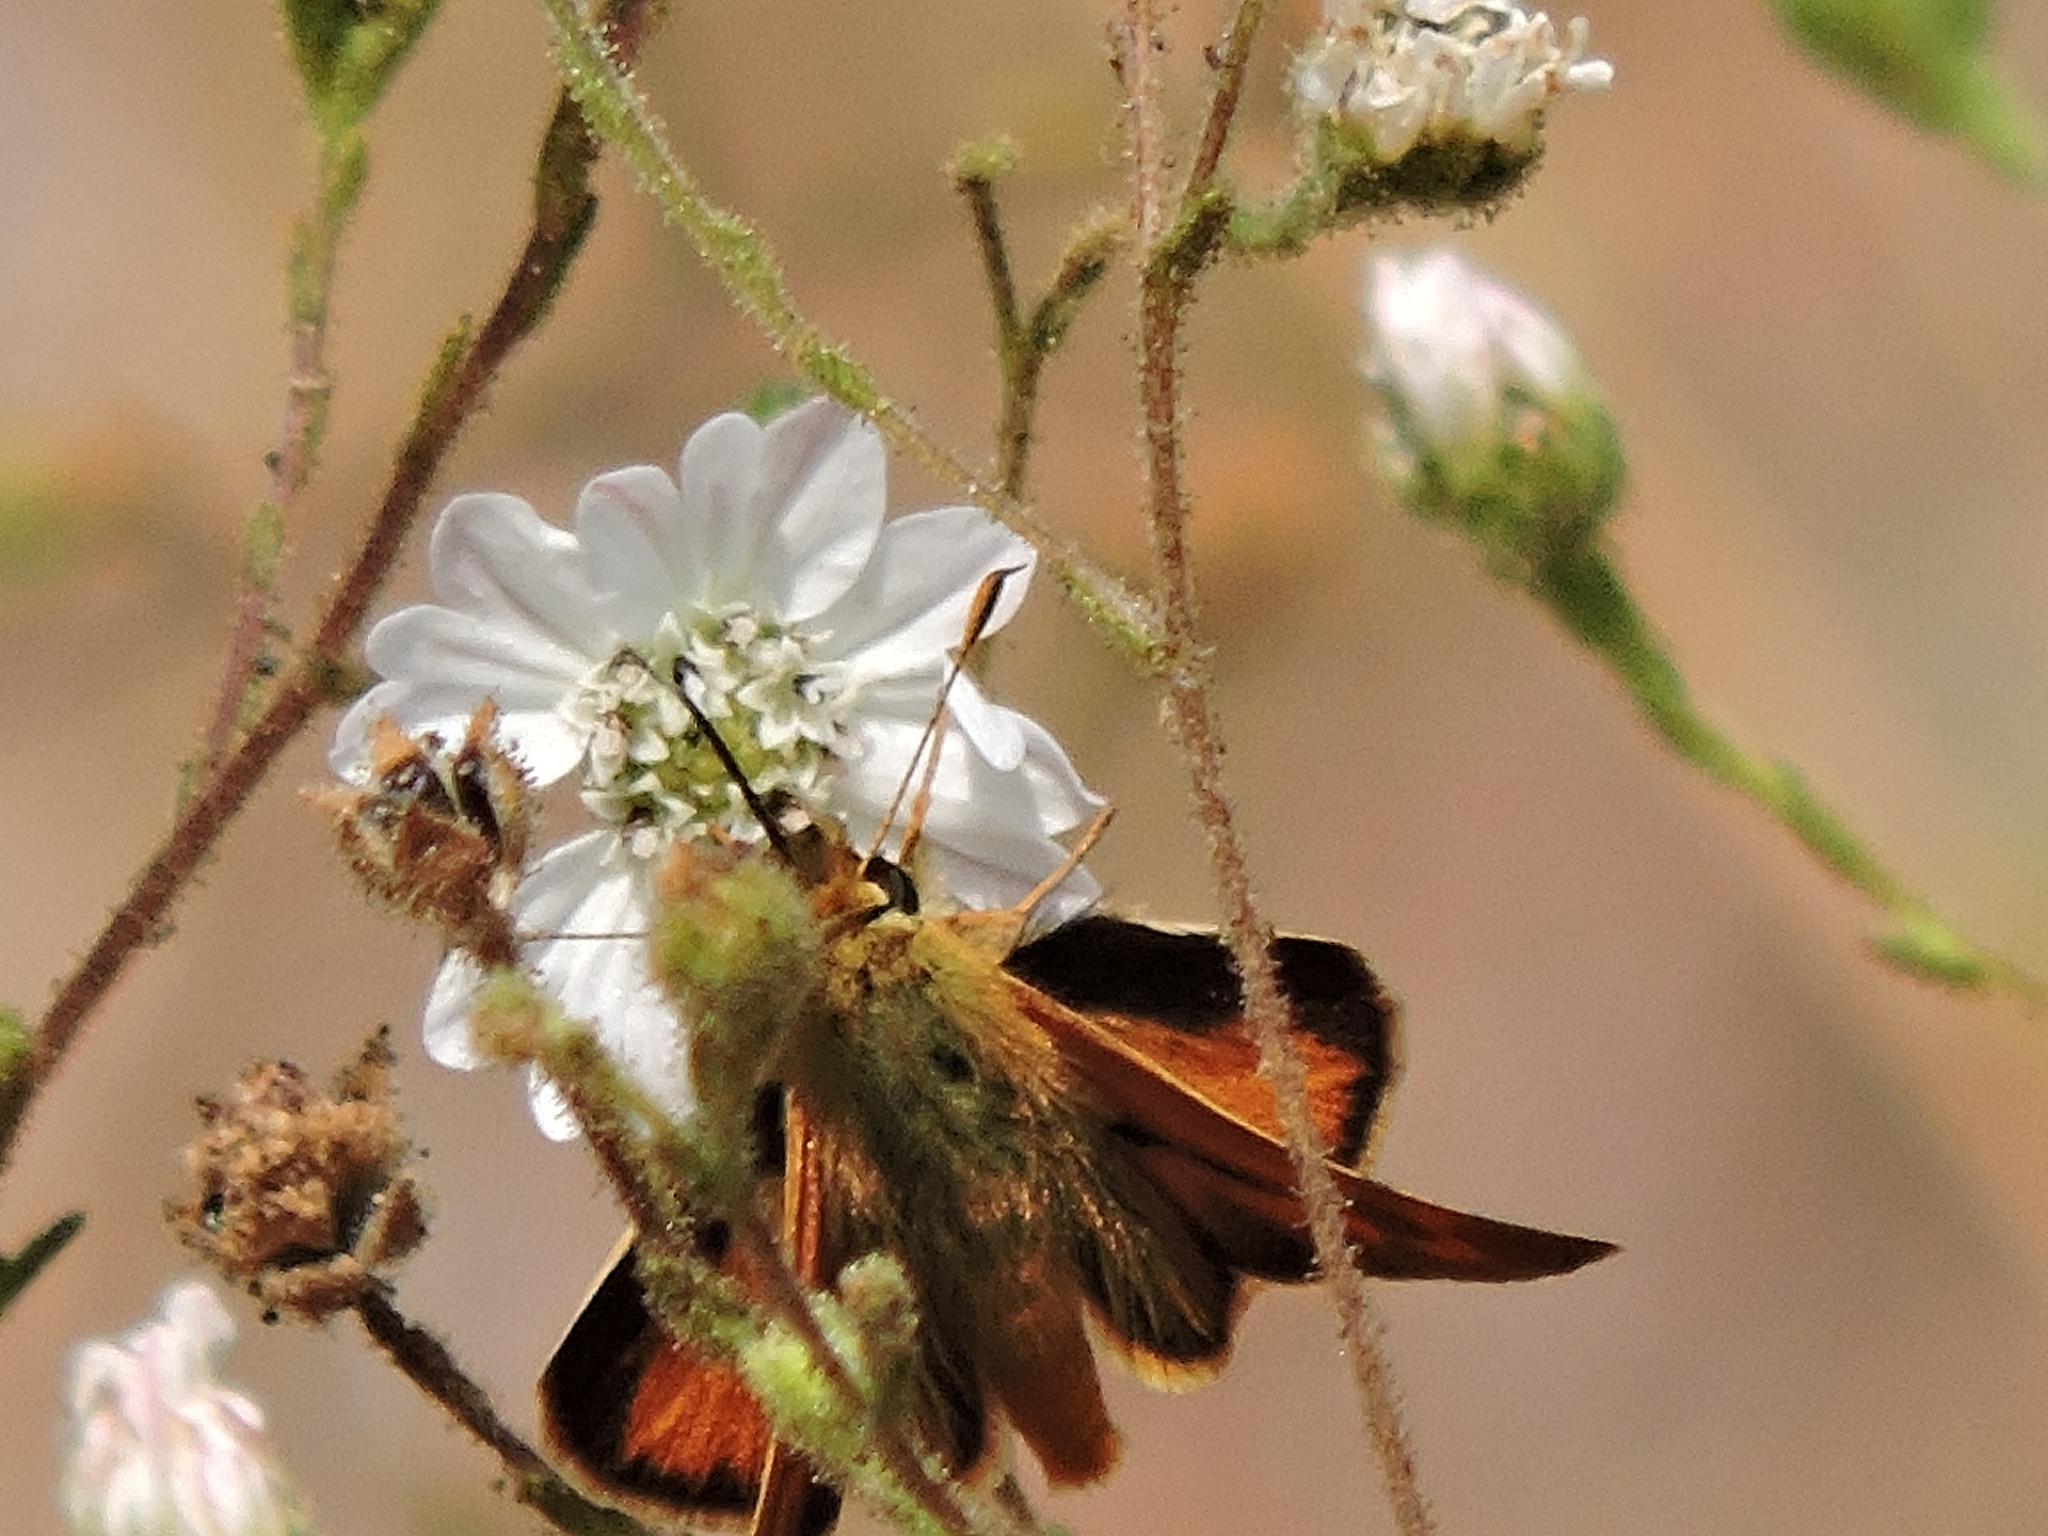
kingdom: Animalia
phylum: Arthropoda
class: Insecta
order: Lepidoptera
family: Hesperiidae
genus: Ochlodes
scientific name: Ochlodes sylvanoides
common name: Woodland skipper
